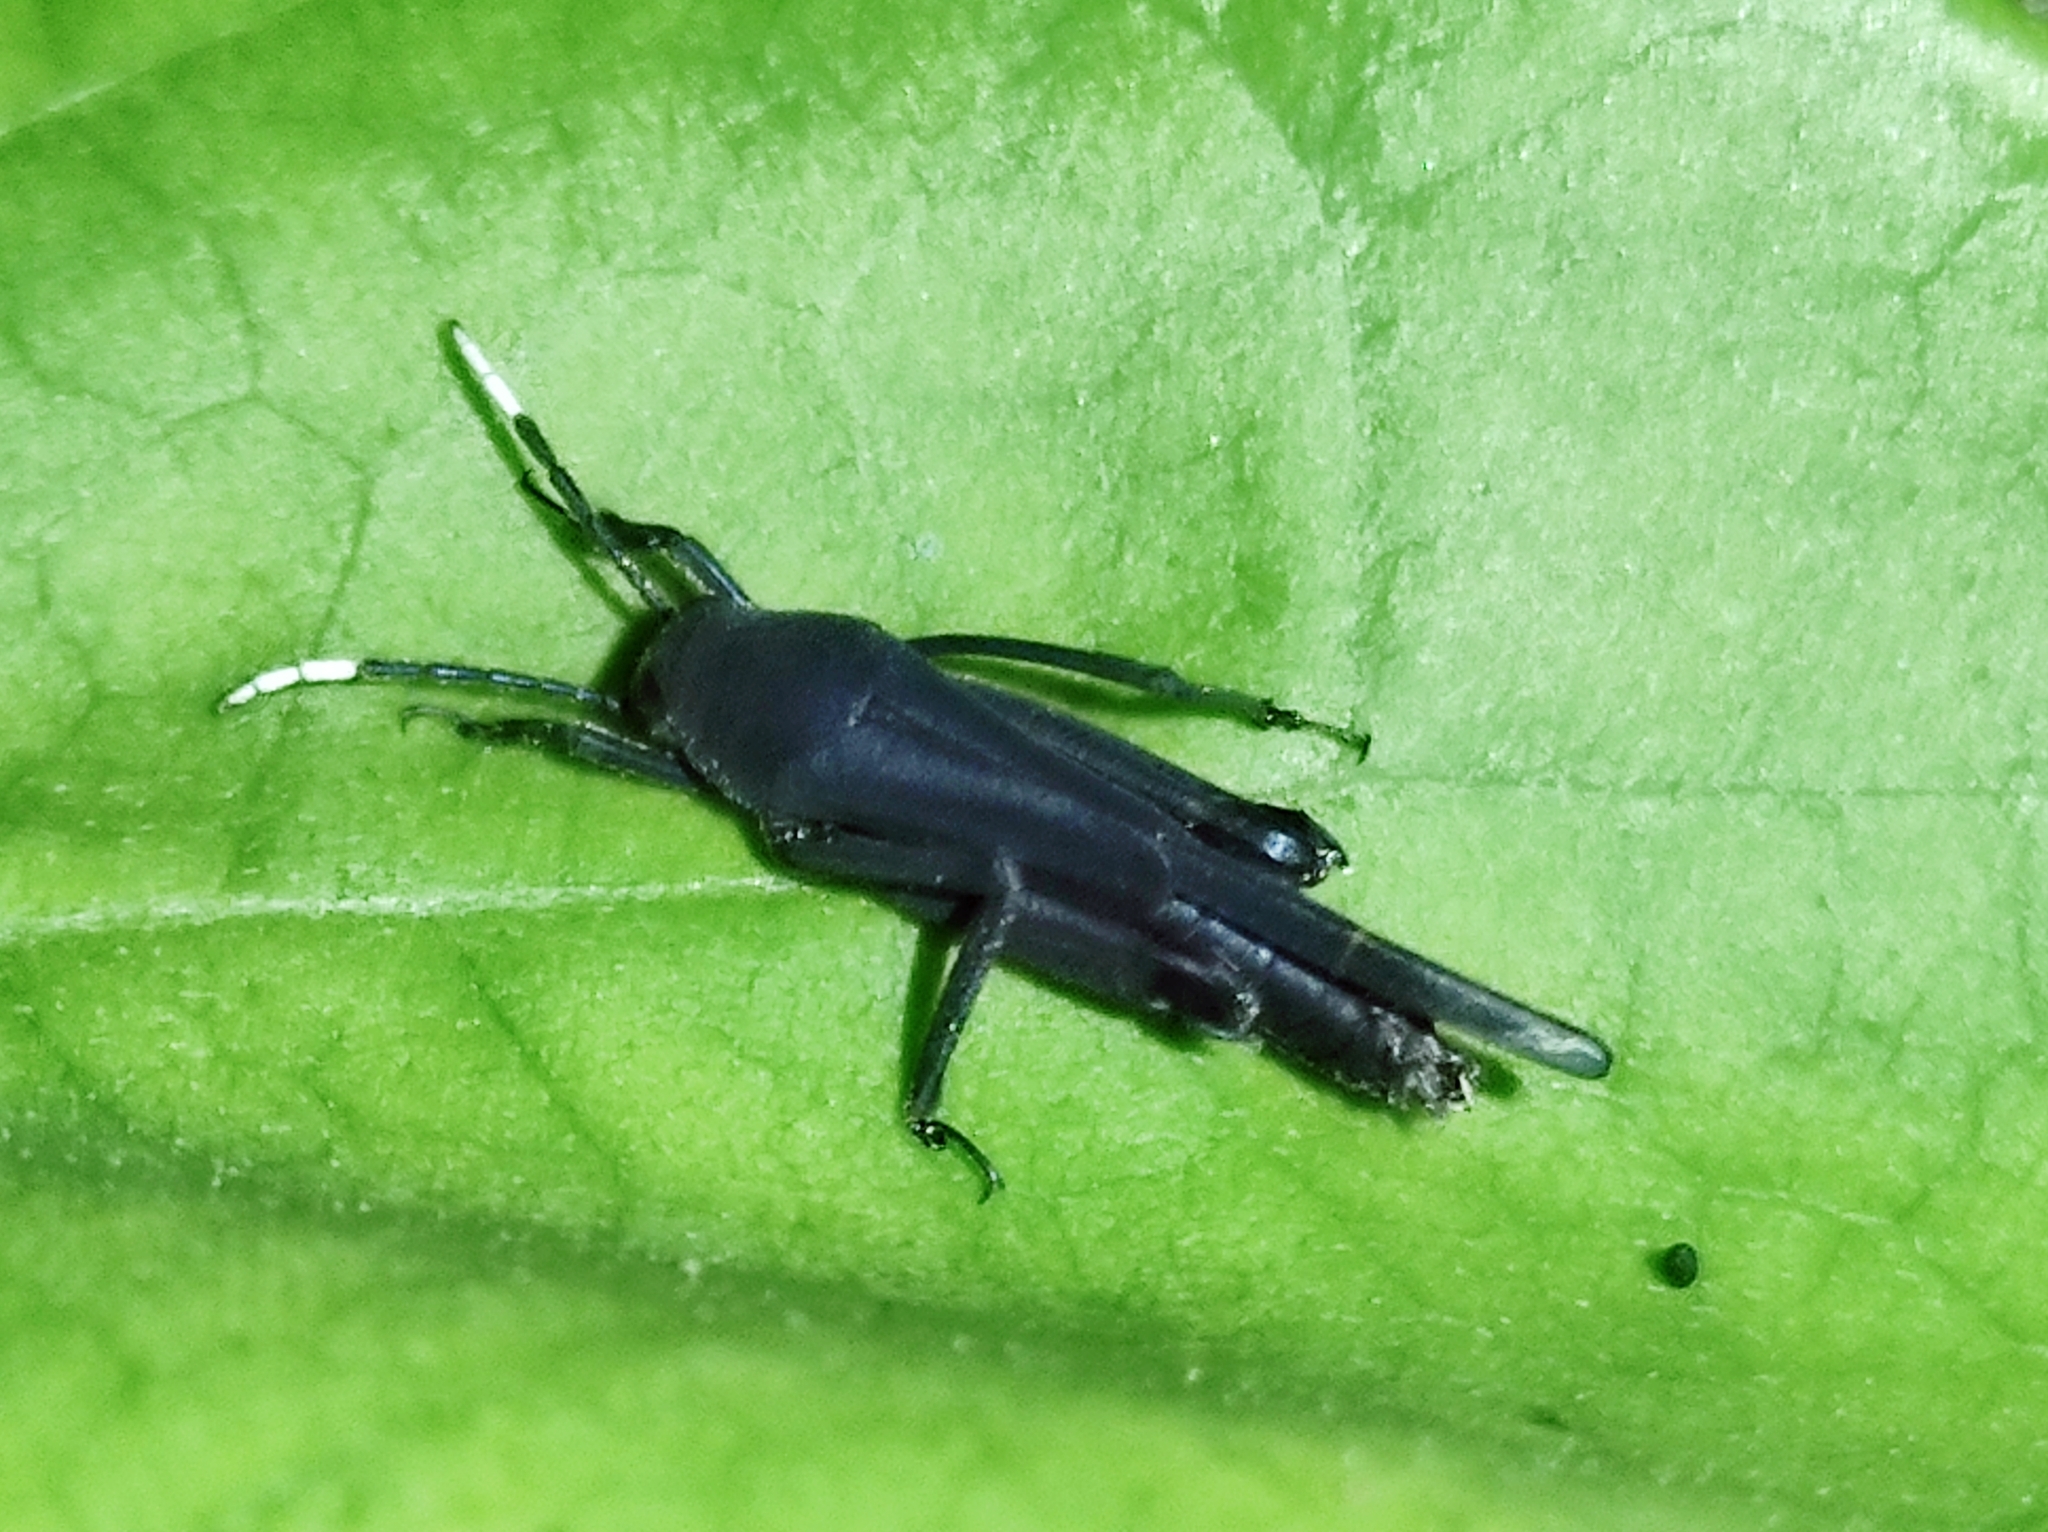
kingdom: Animalia
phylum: Arthropoda
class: Insecta
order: Orthoptera
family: Ripipterygidae
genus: Ripipteryx
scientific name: Ripipteryx forceps
